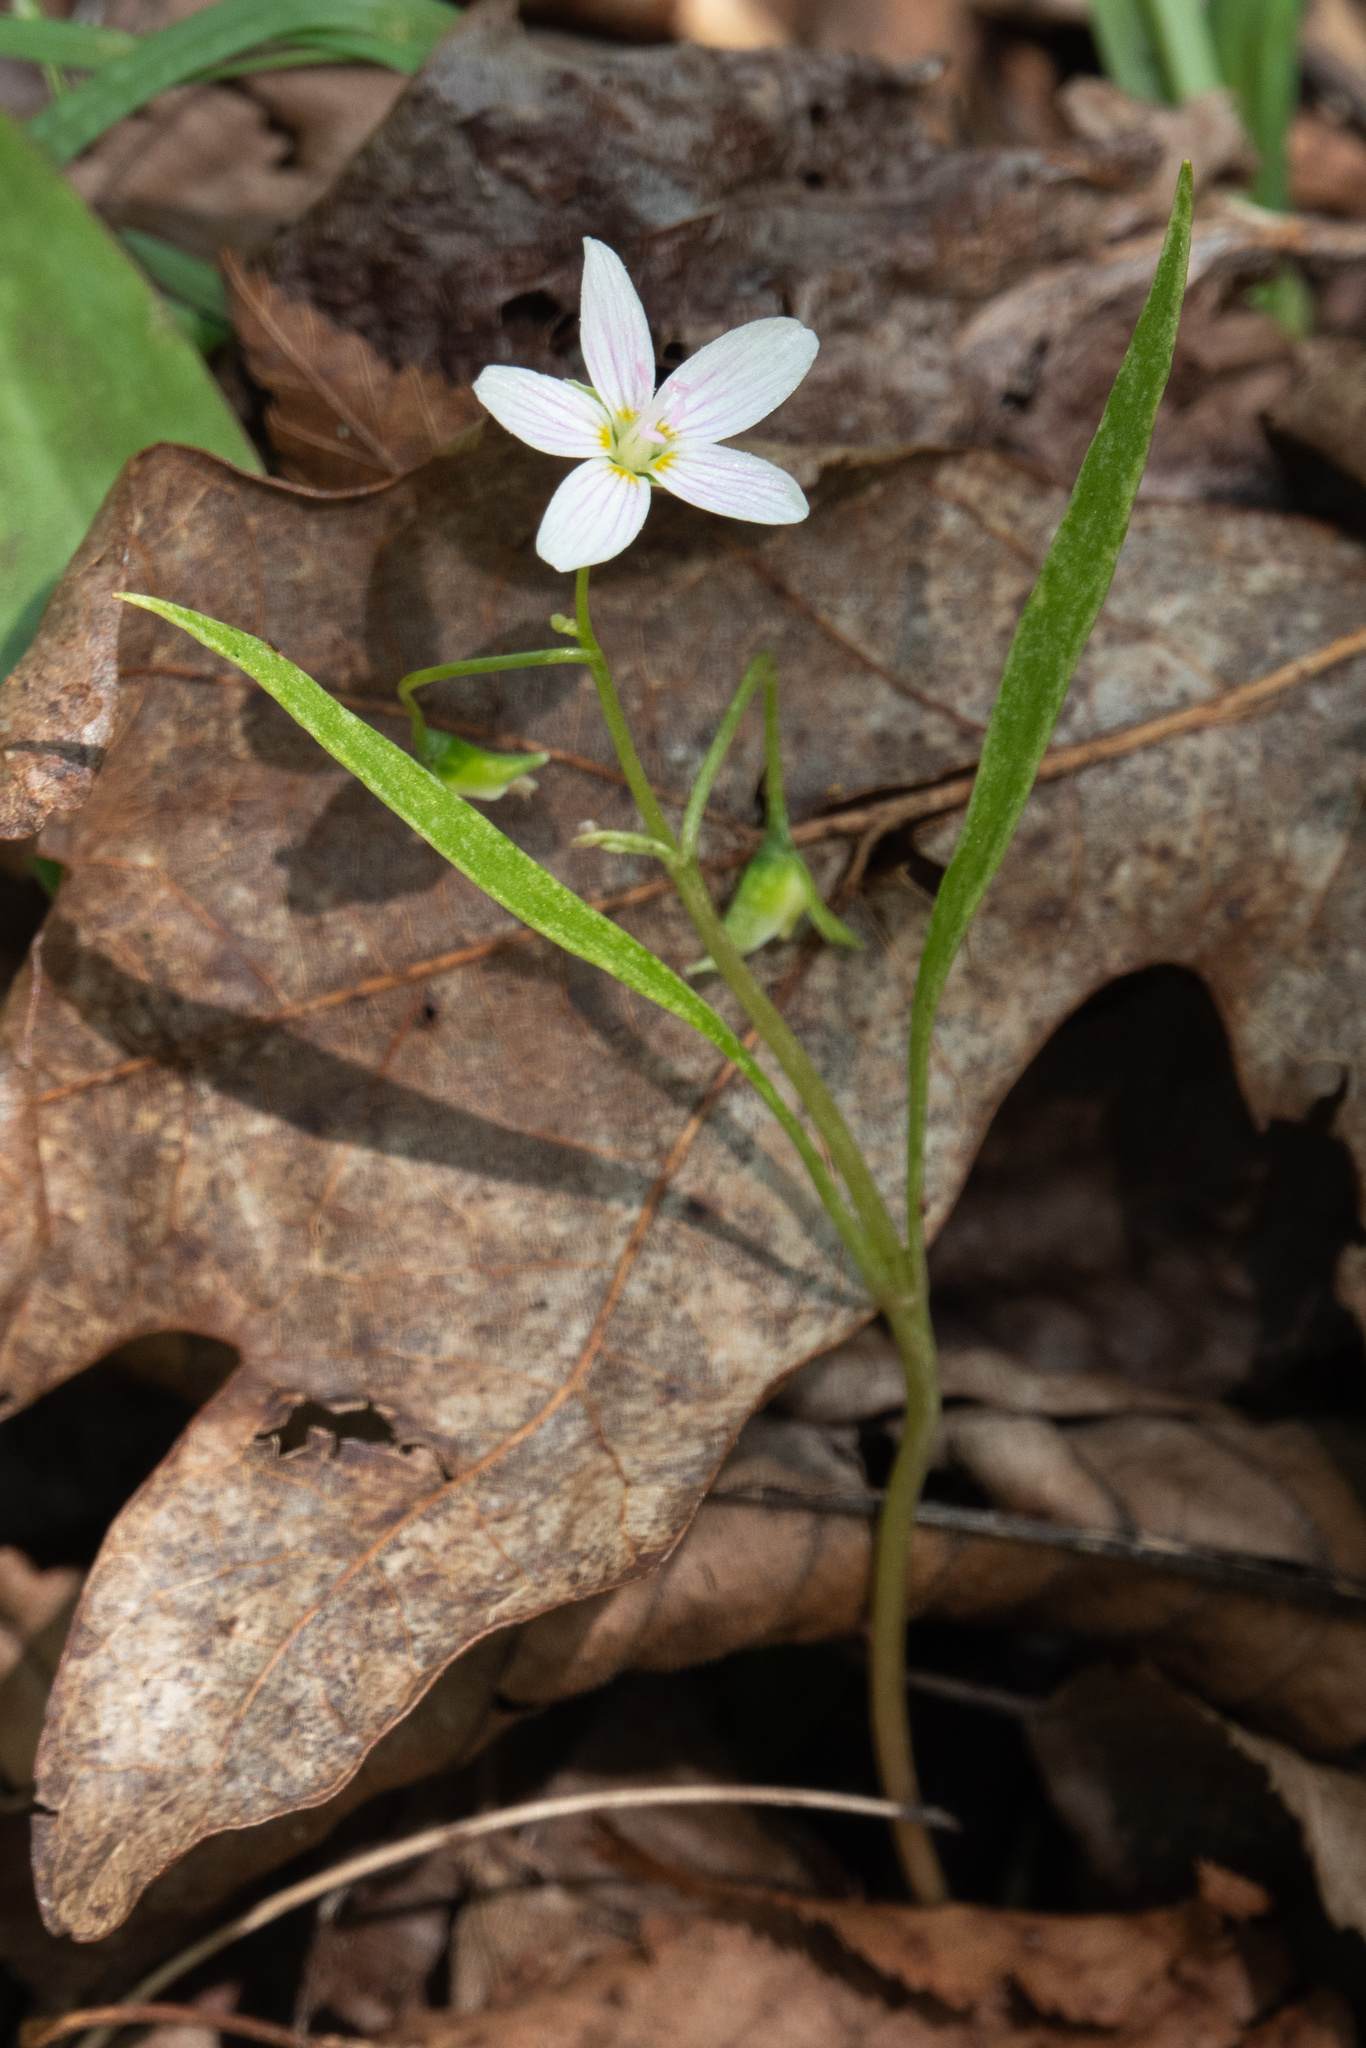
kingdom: Plantae
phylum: Tracheophyta
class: Magnoliopsida
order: Caryophyllales
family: Montiaceae
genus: Claytonia
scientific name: Claytonia virginica
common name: Virginia springbeauty
